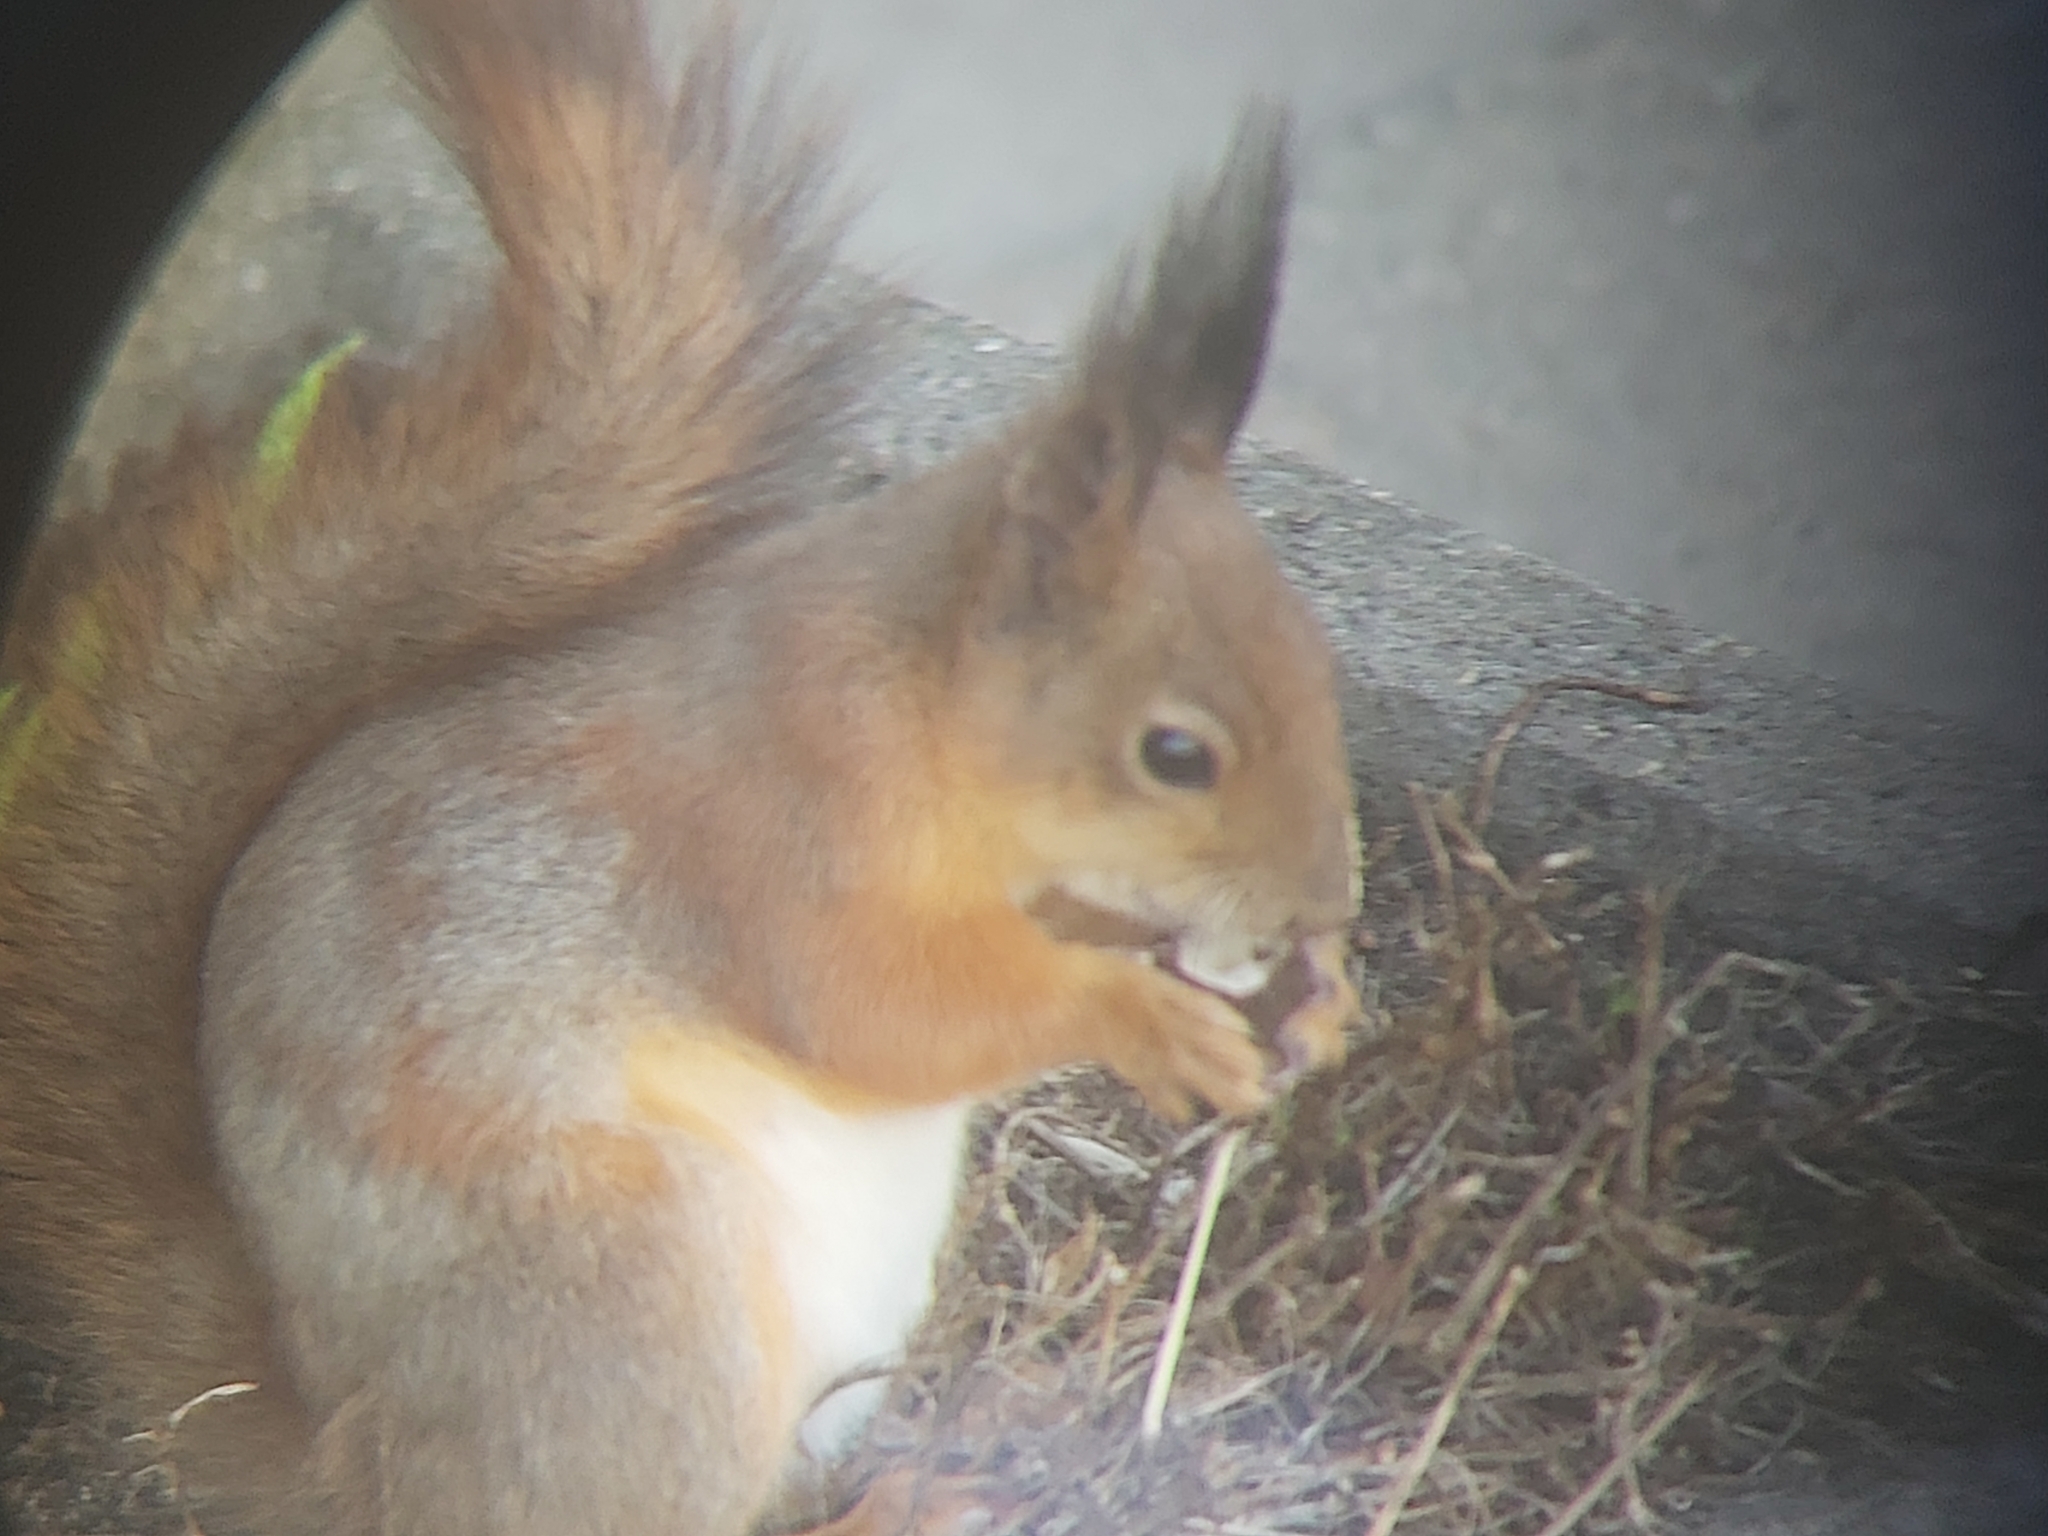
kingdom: Animalia
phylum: Chordata
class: Mammalia
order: Rodentia
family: Sciuridae
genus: Sciurus
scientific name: Sciurus vulgaris
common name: Eurasian red squirrel
